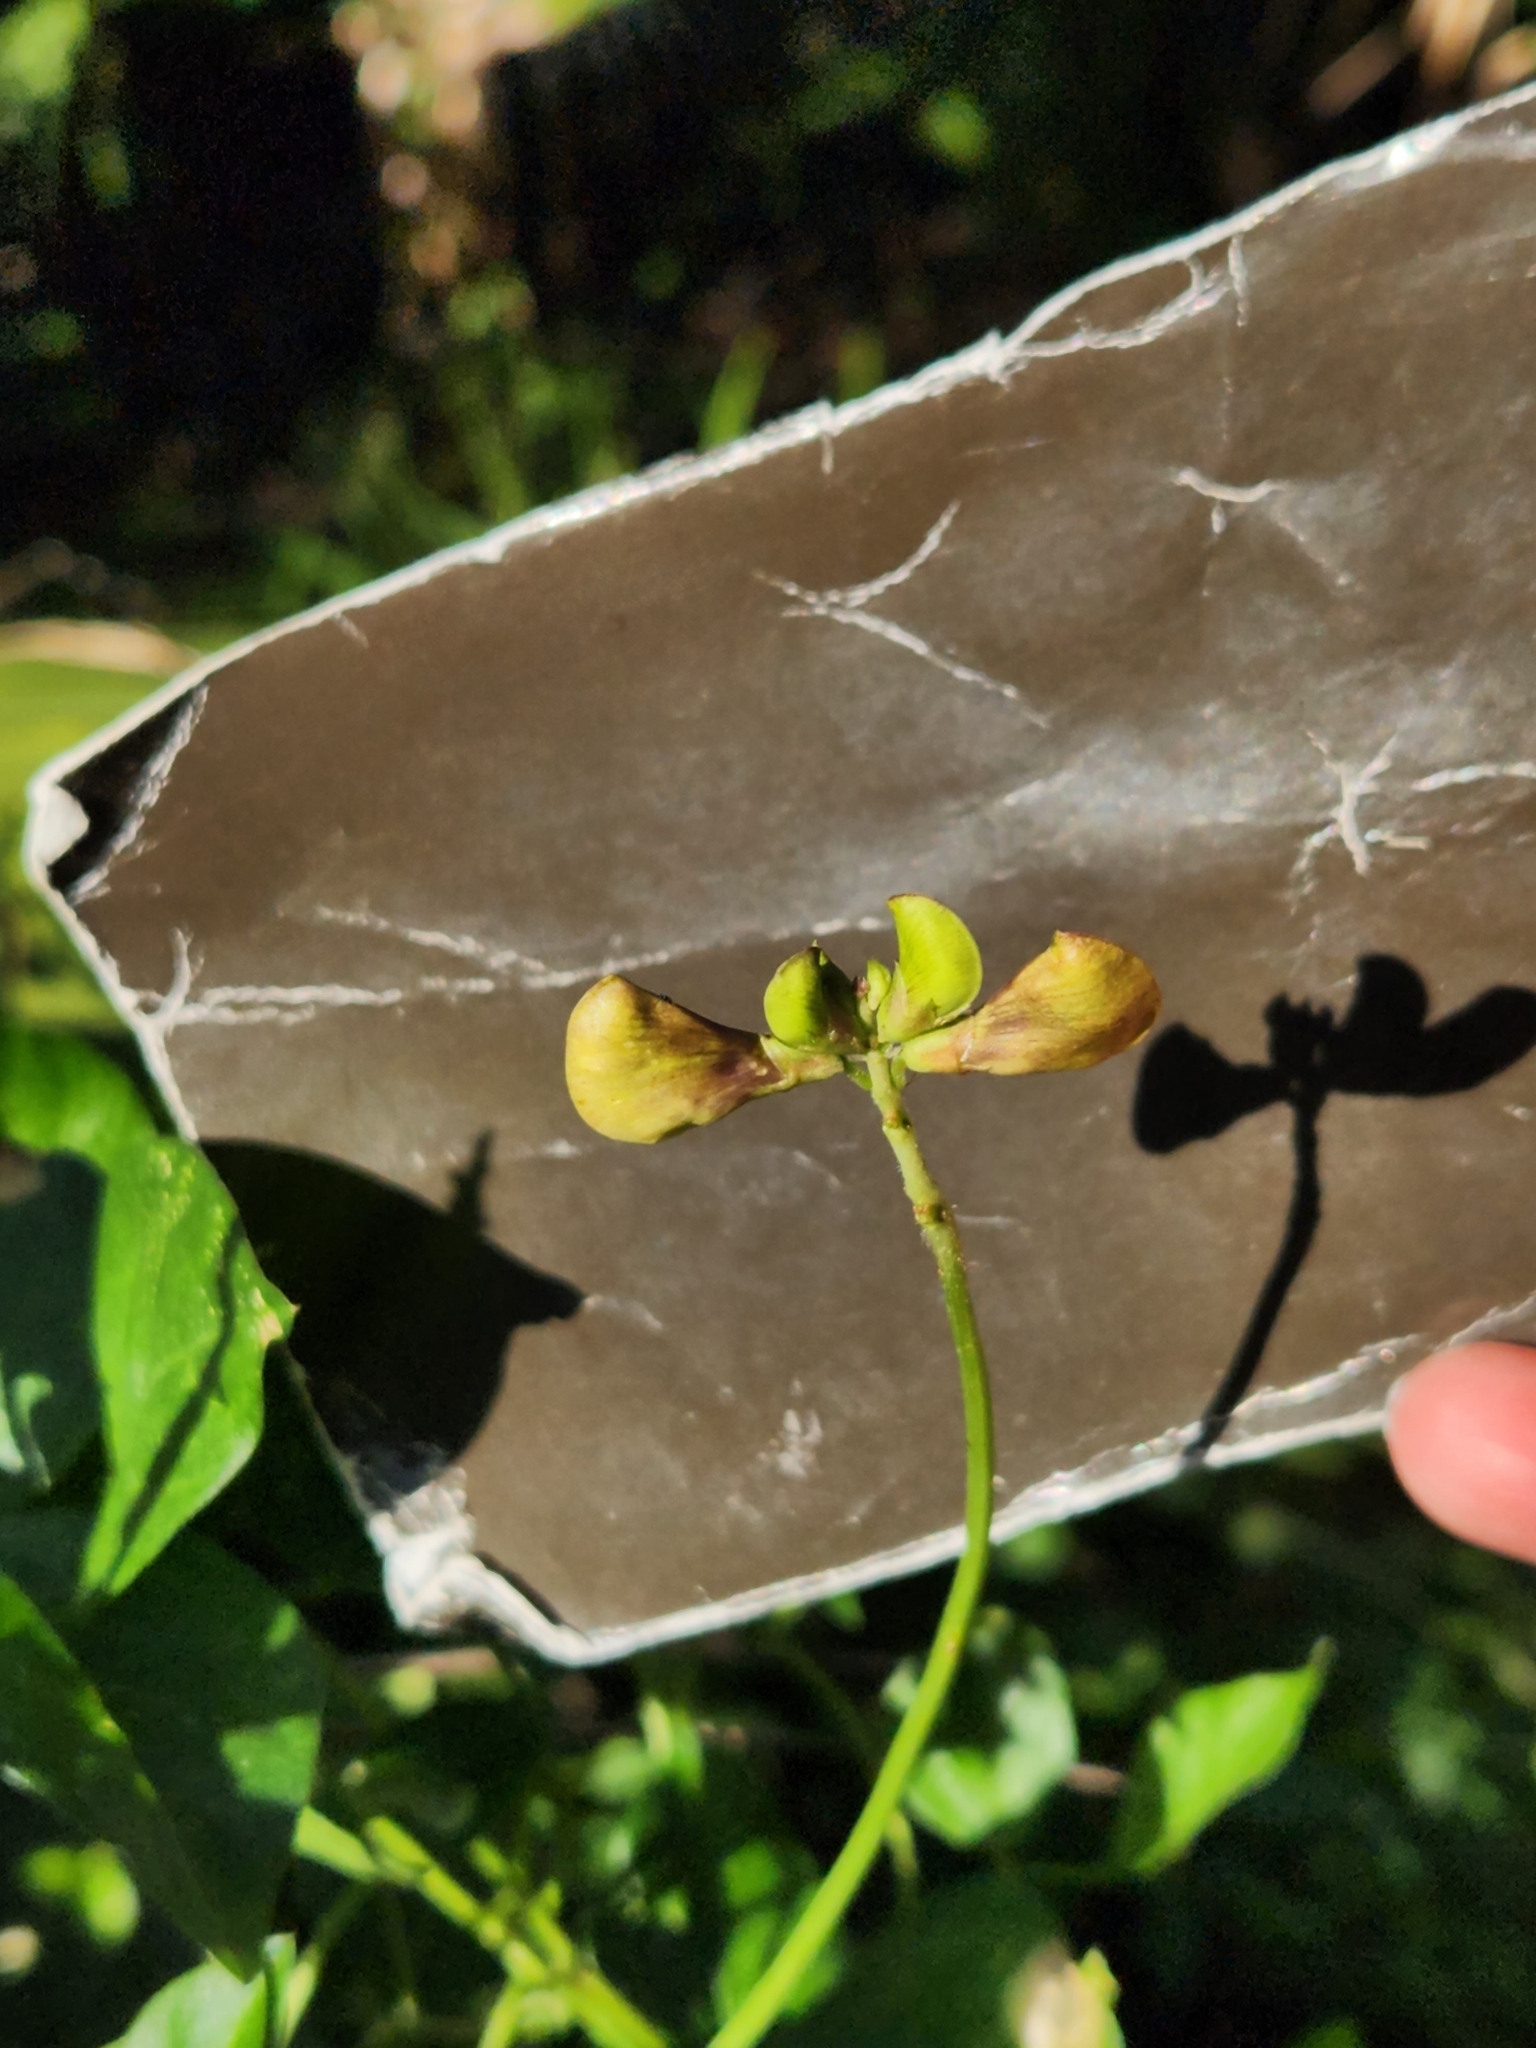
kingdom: Plantae
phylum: Tracheophyta
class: Magnoliopsida
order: Fabales
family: Fabaceae
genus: Vigna
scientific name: Vigna luteola
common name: Hairypod cowpea
